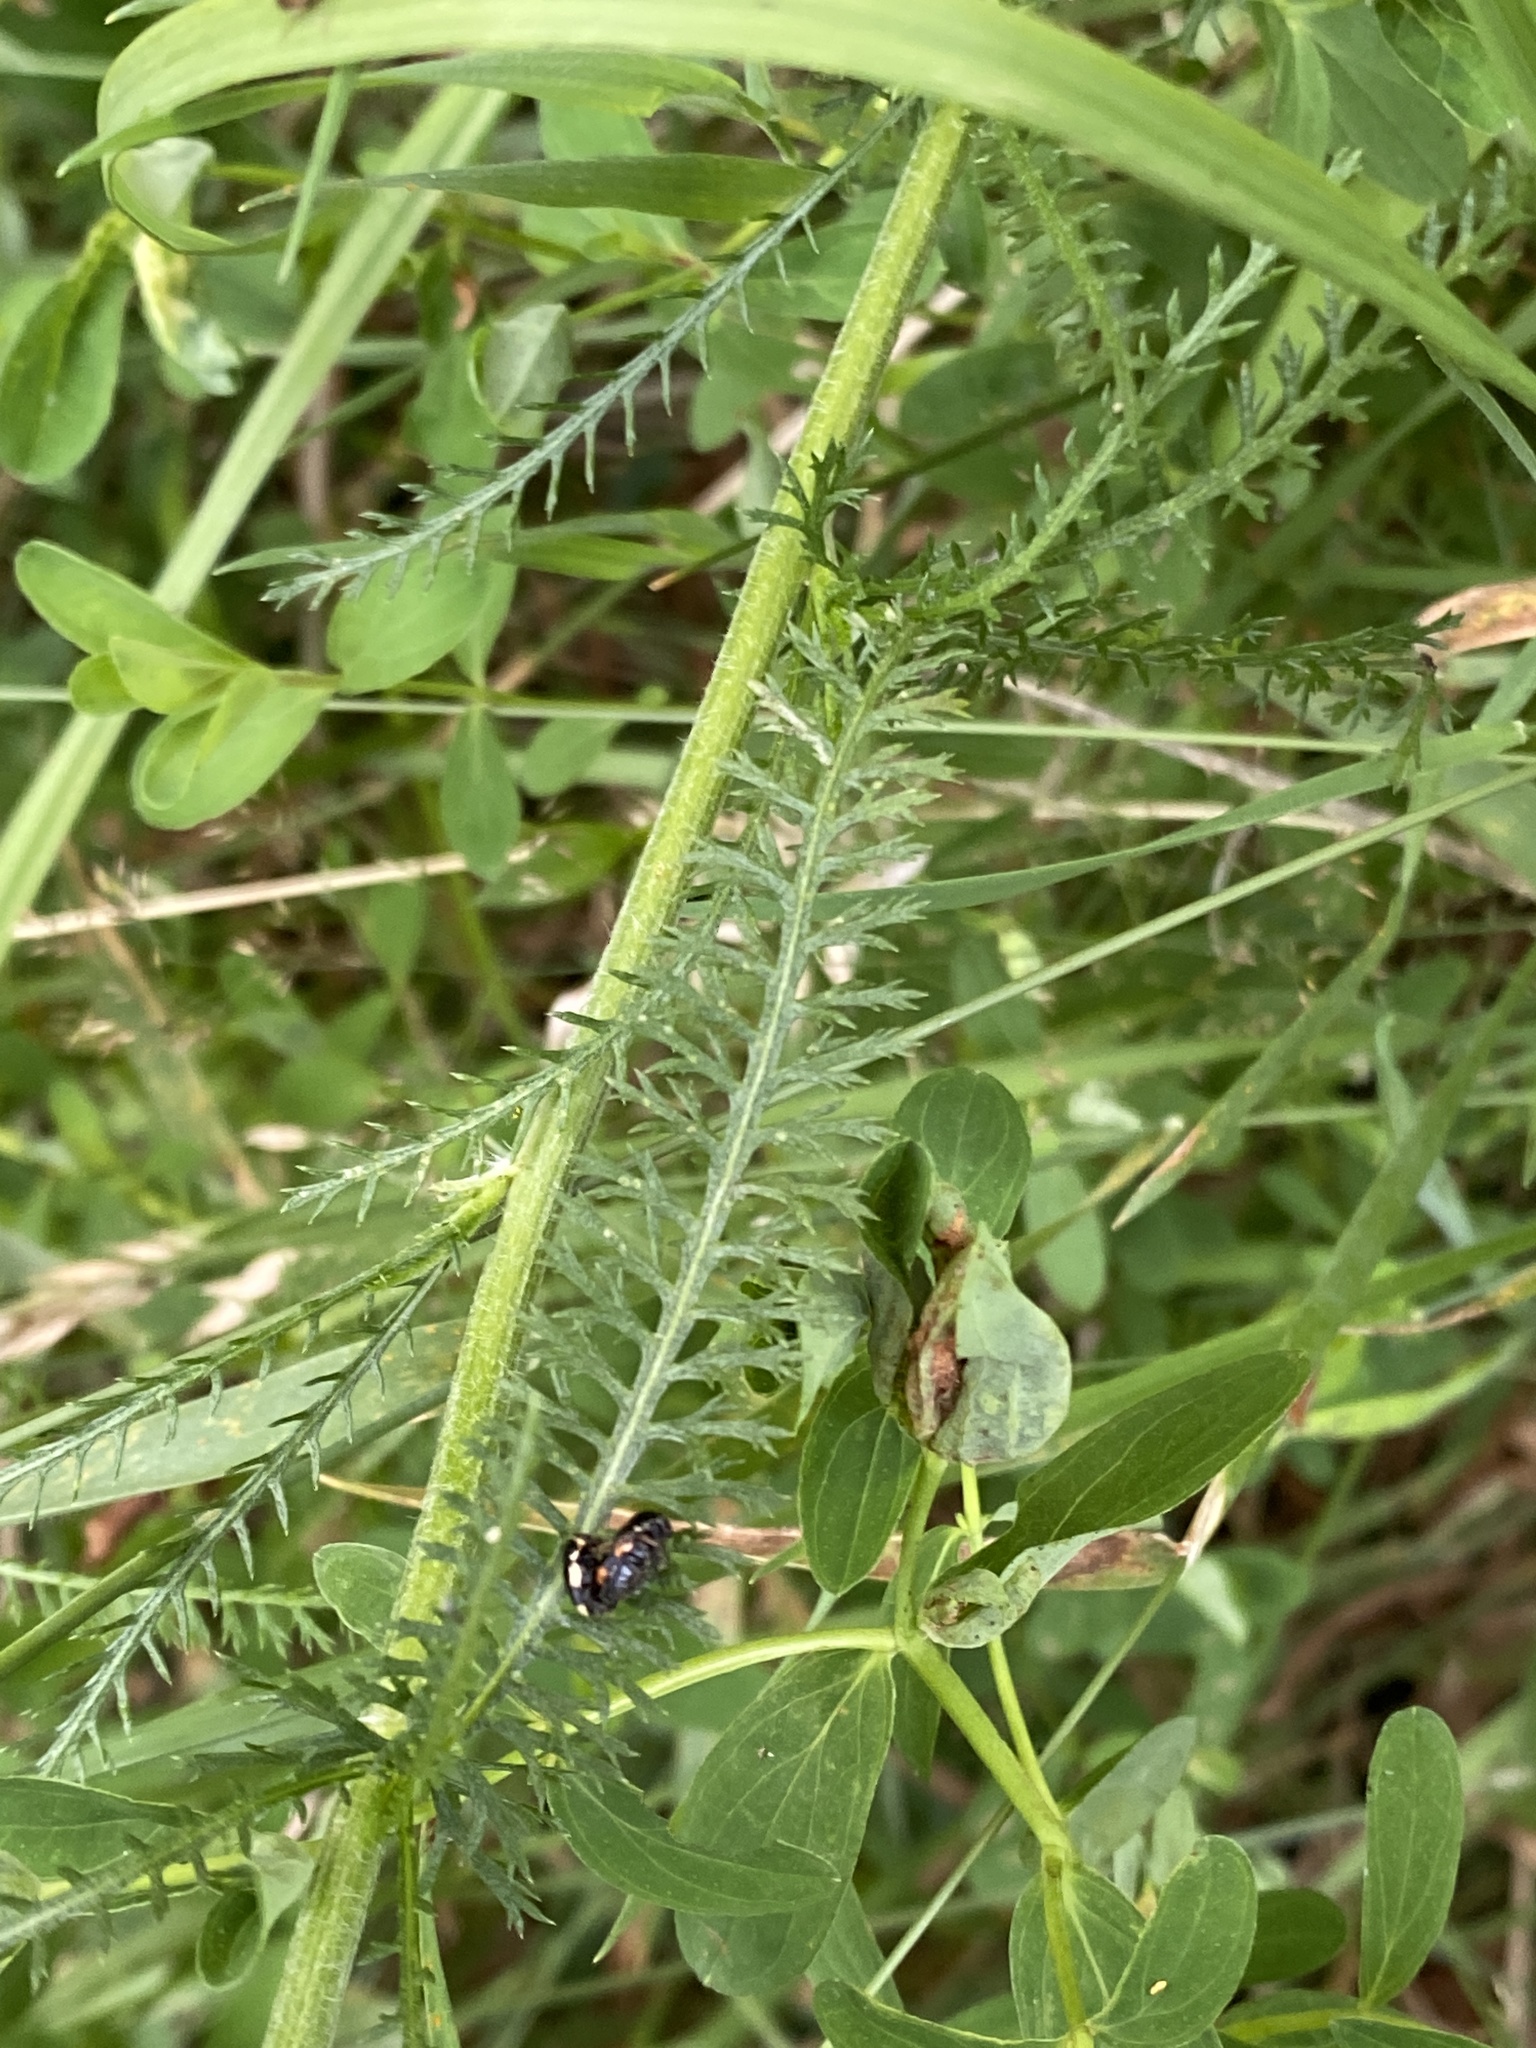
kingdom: Plantae
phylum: Tracheophyta
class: Magnoliopsida
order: Asterales
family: Asteraceae
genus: Achillea
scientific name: Achillea millefolium
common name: Yarrow
